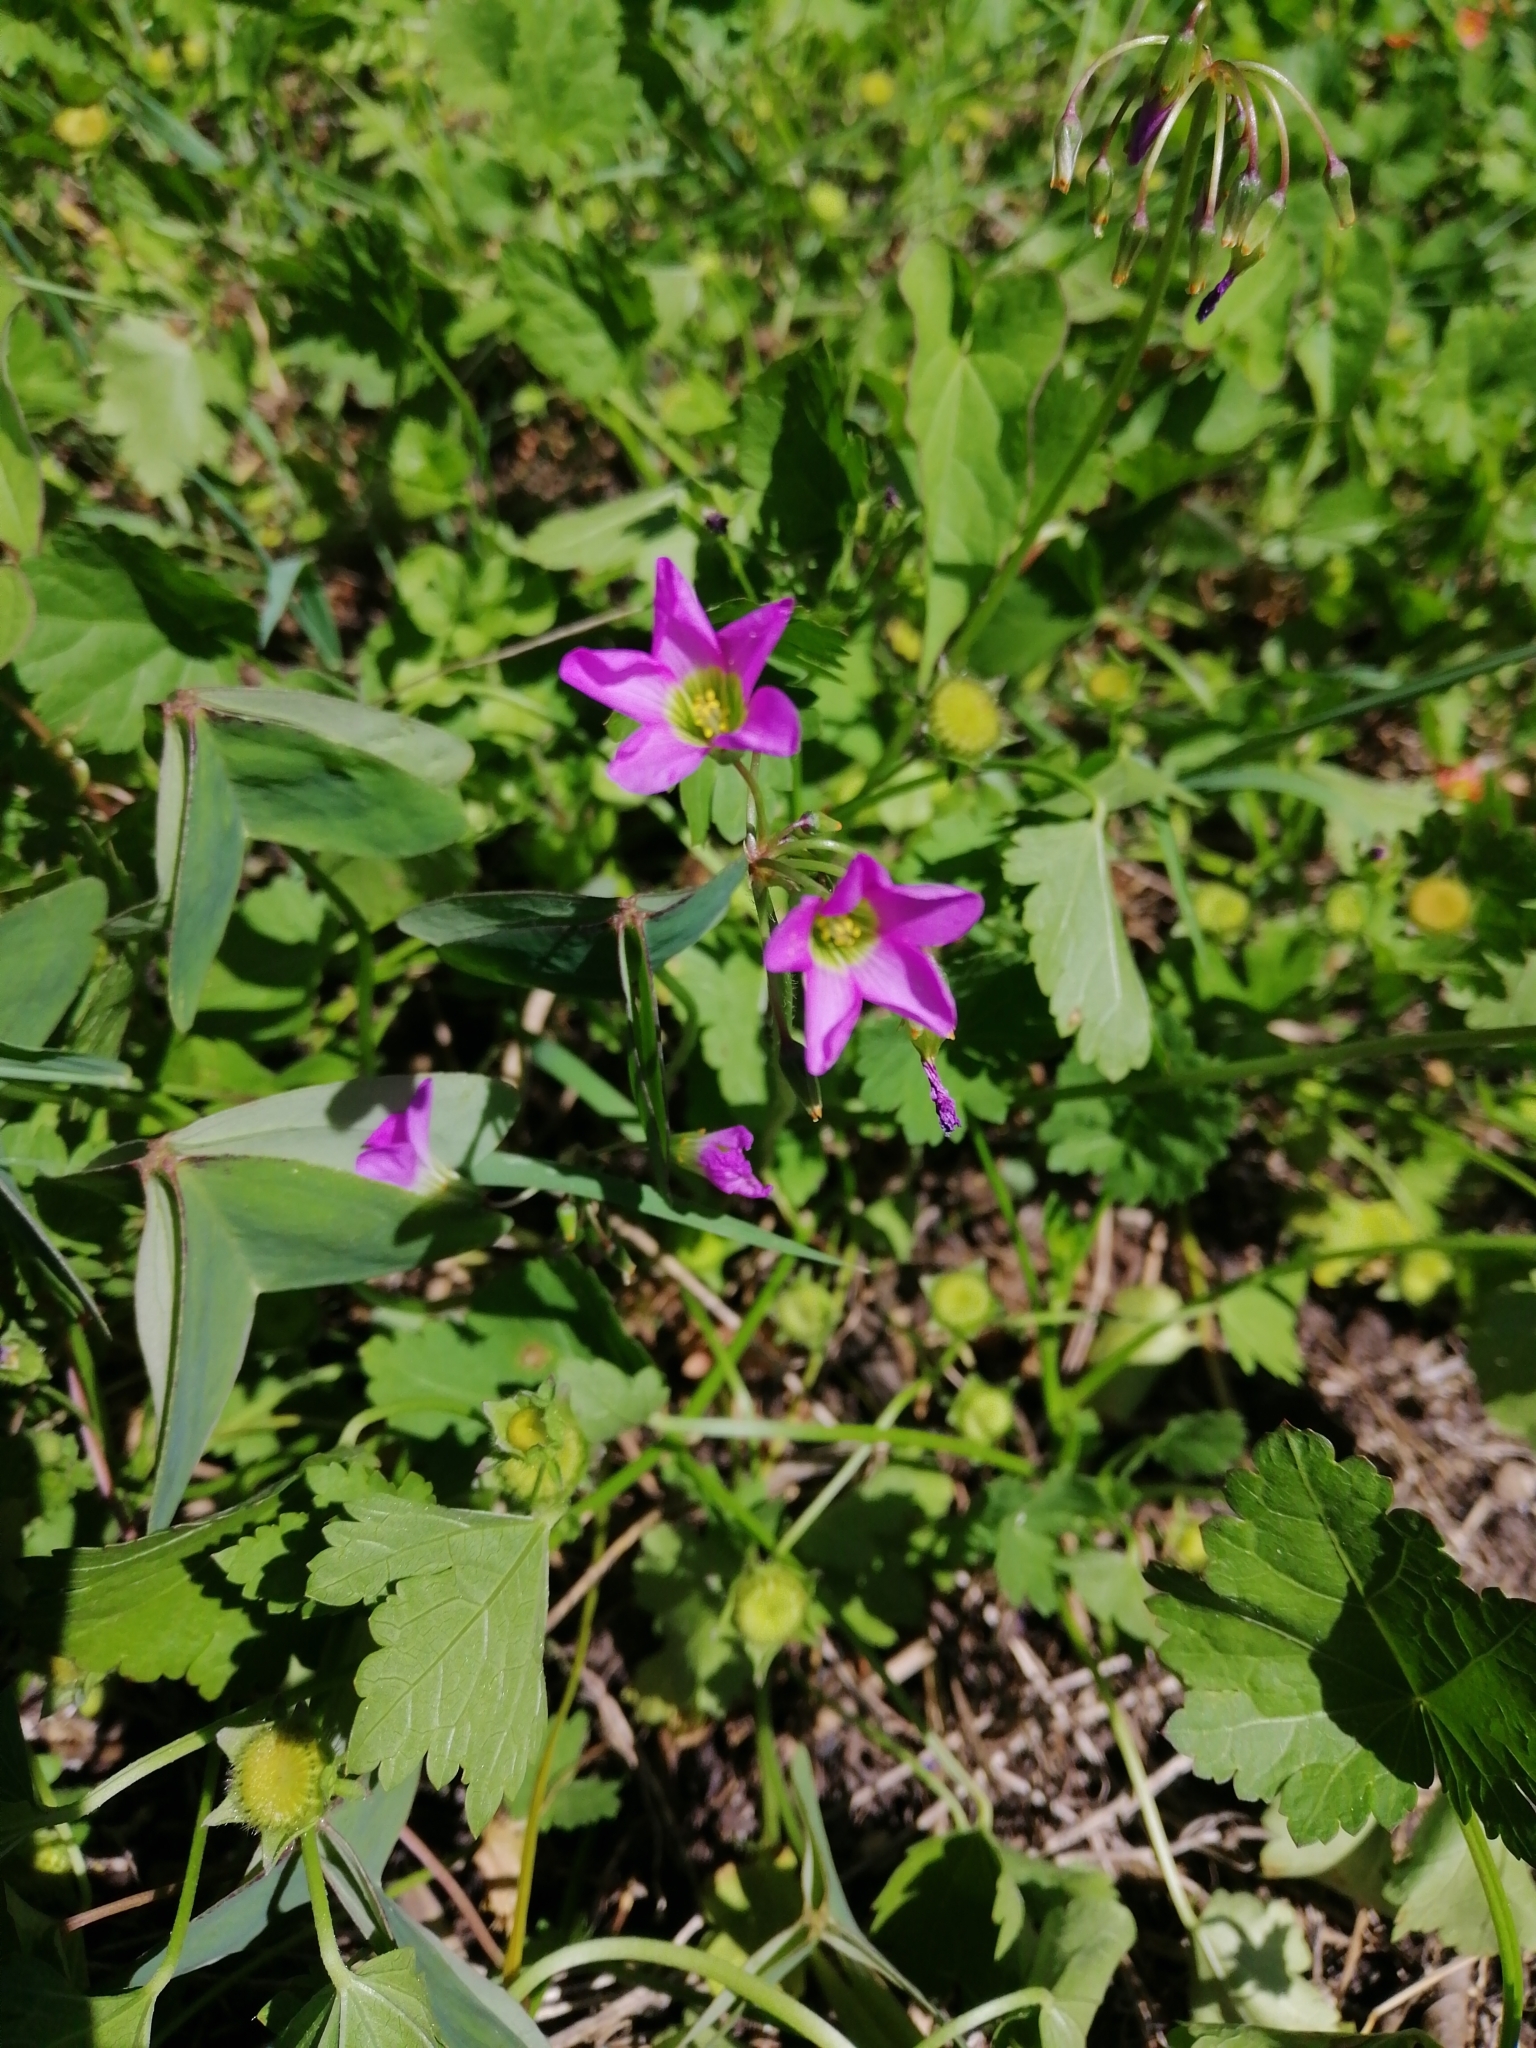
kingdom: Plantae
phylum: Tracheophyta
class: Magnoliopsida
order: Oxalidales
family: Oxalidaceae
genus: Oxalis
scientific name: Oxalis latifolia
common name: Garden pink-sorrel
